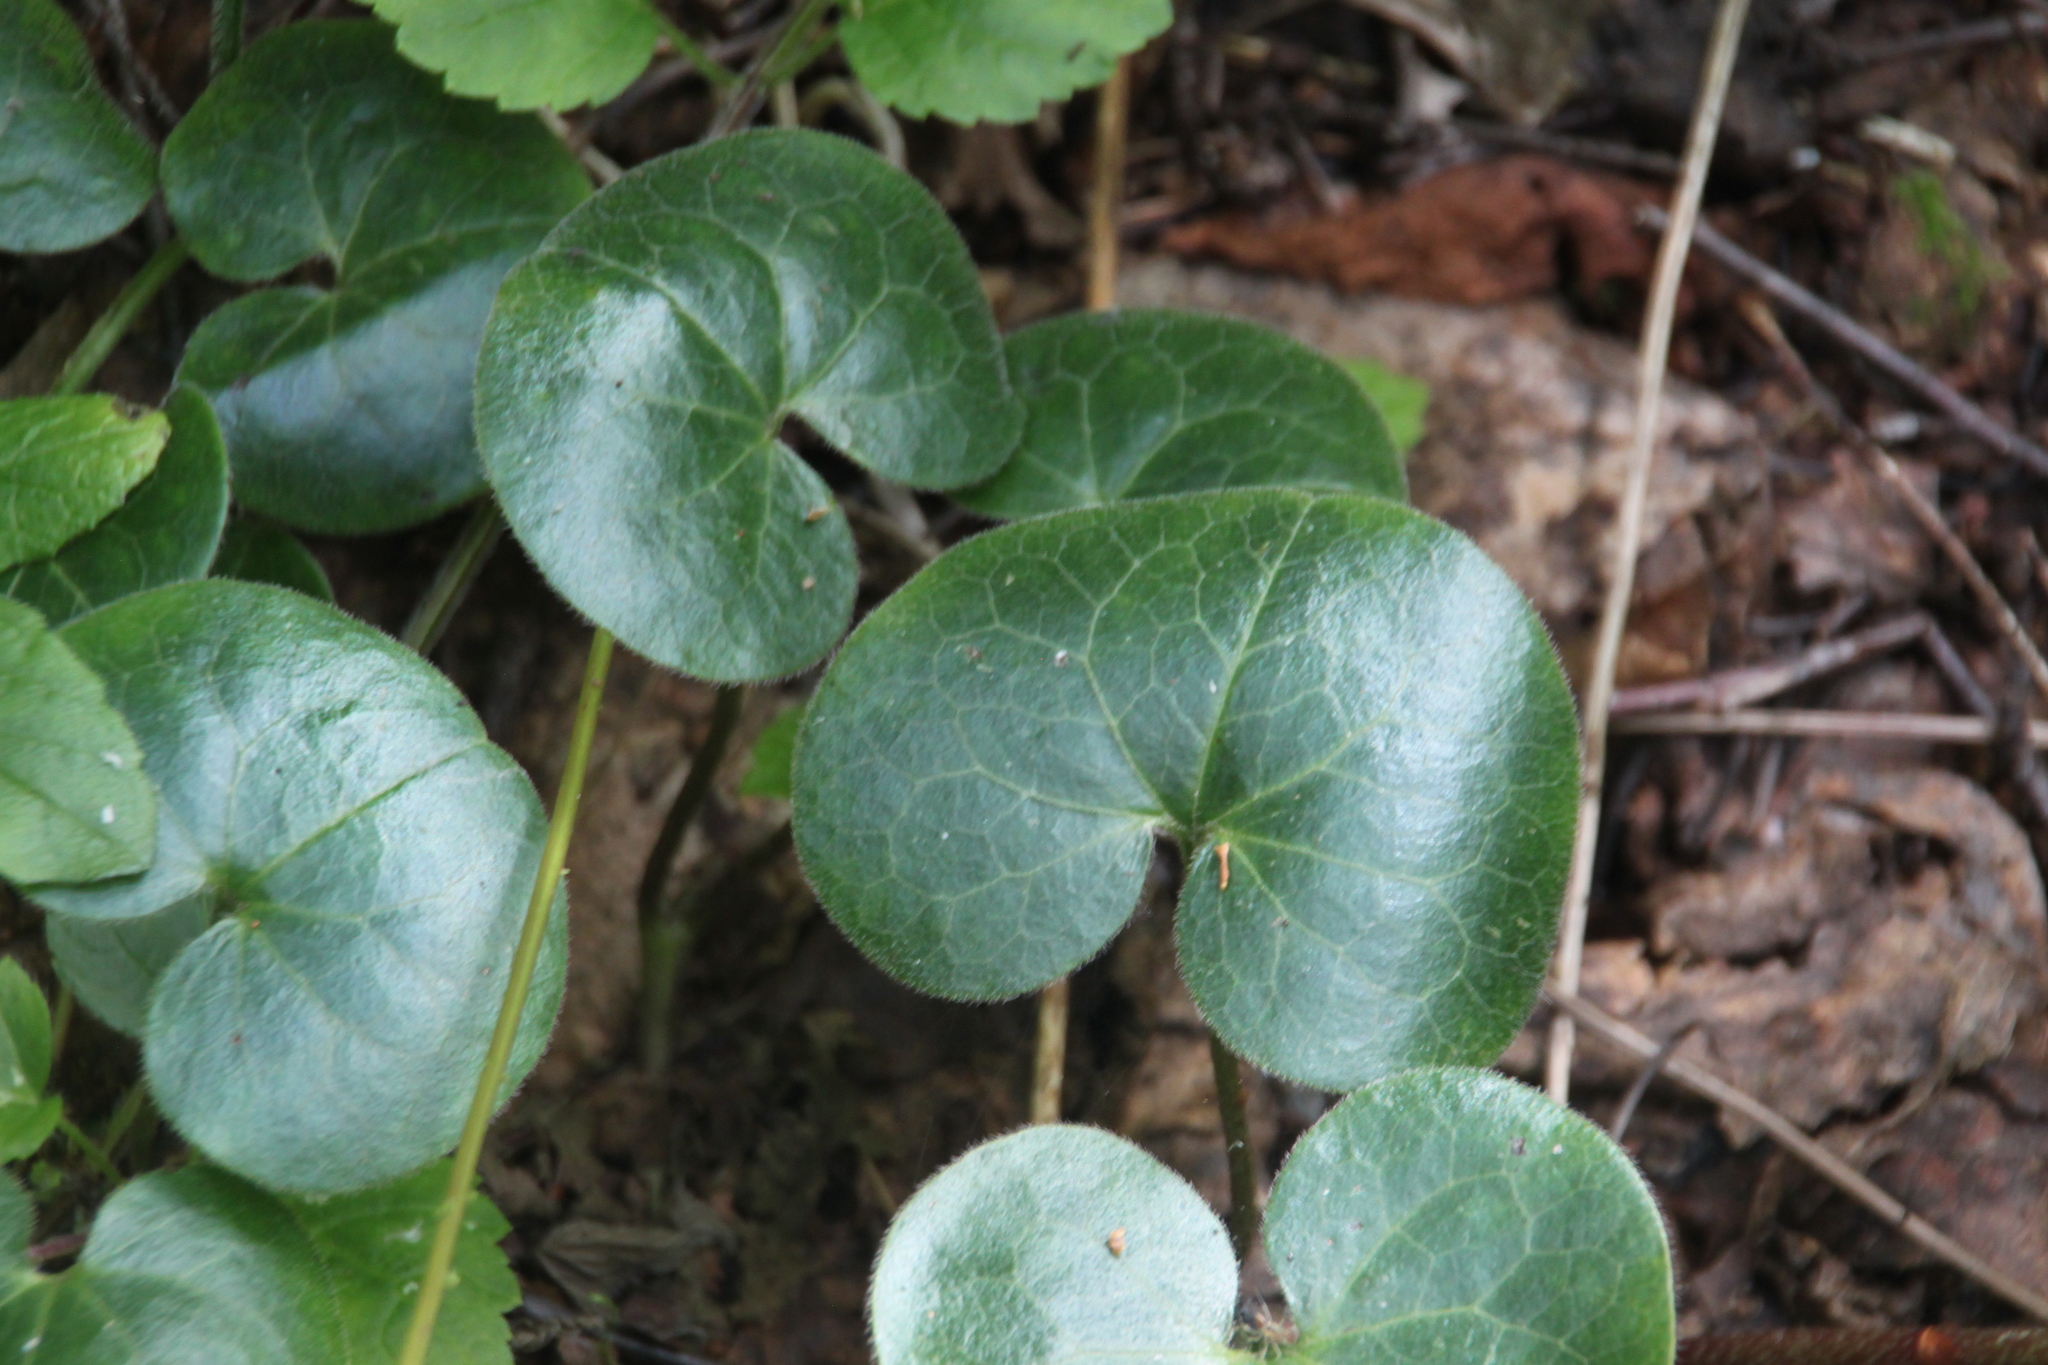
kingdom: Plantae
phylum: Tracheophyta
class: Magnoliopsida
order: Piperales
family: Aristolochiaceae
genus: Asarum
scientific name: Asarum europaeum
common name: Asarabacca
